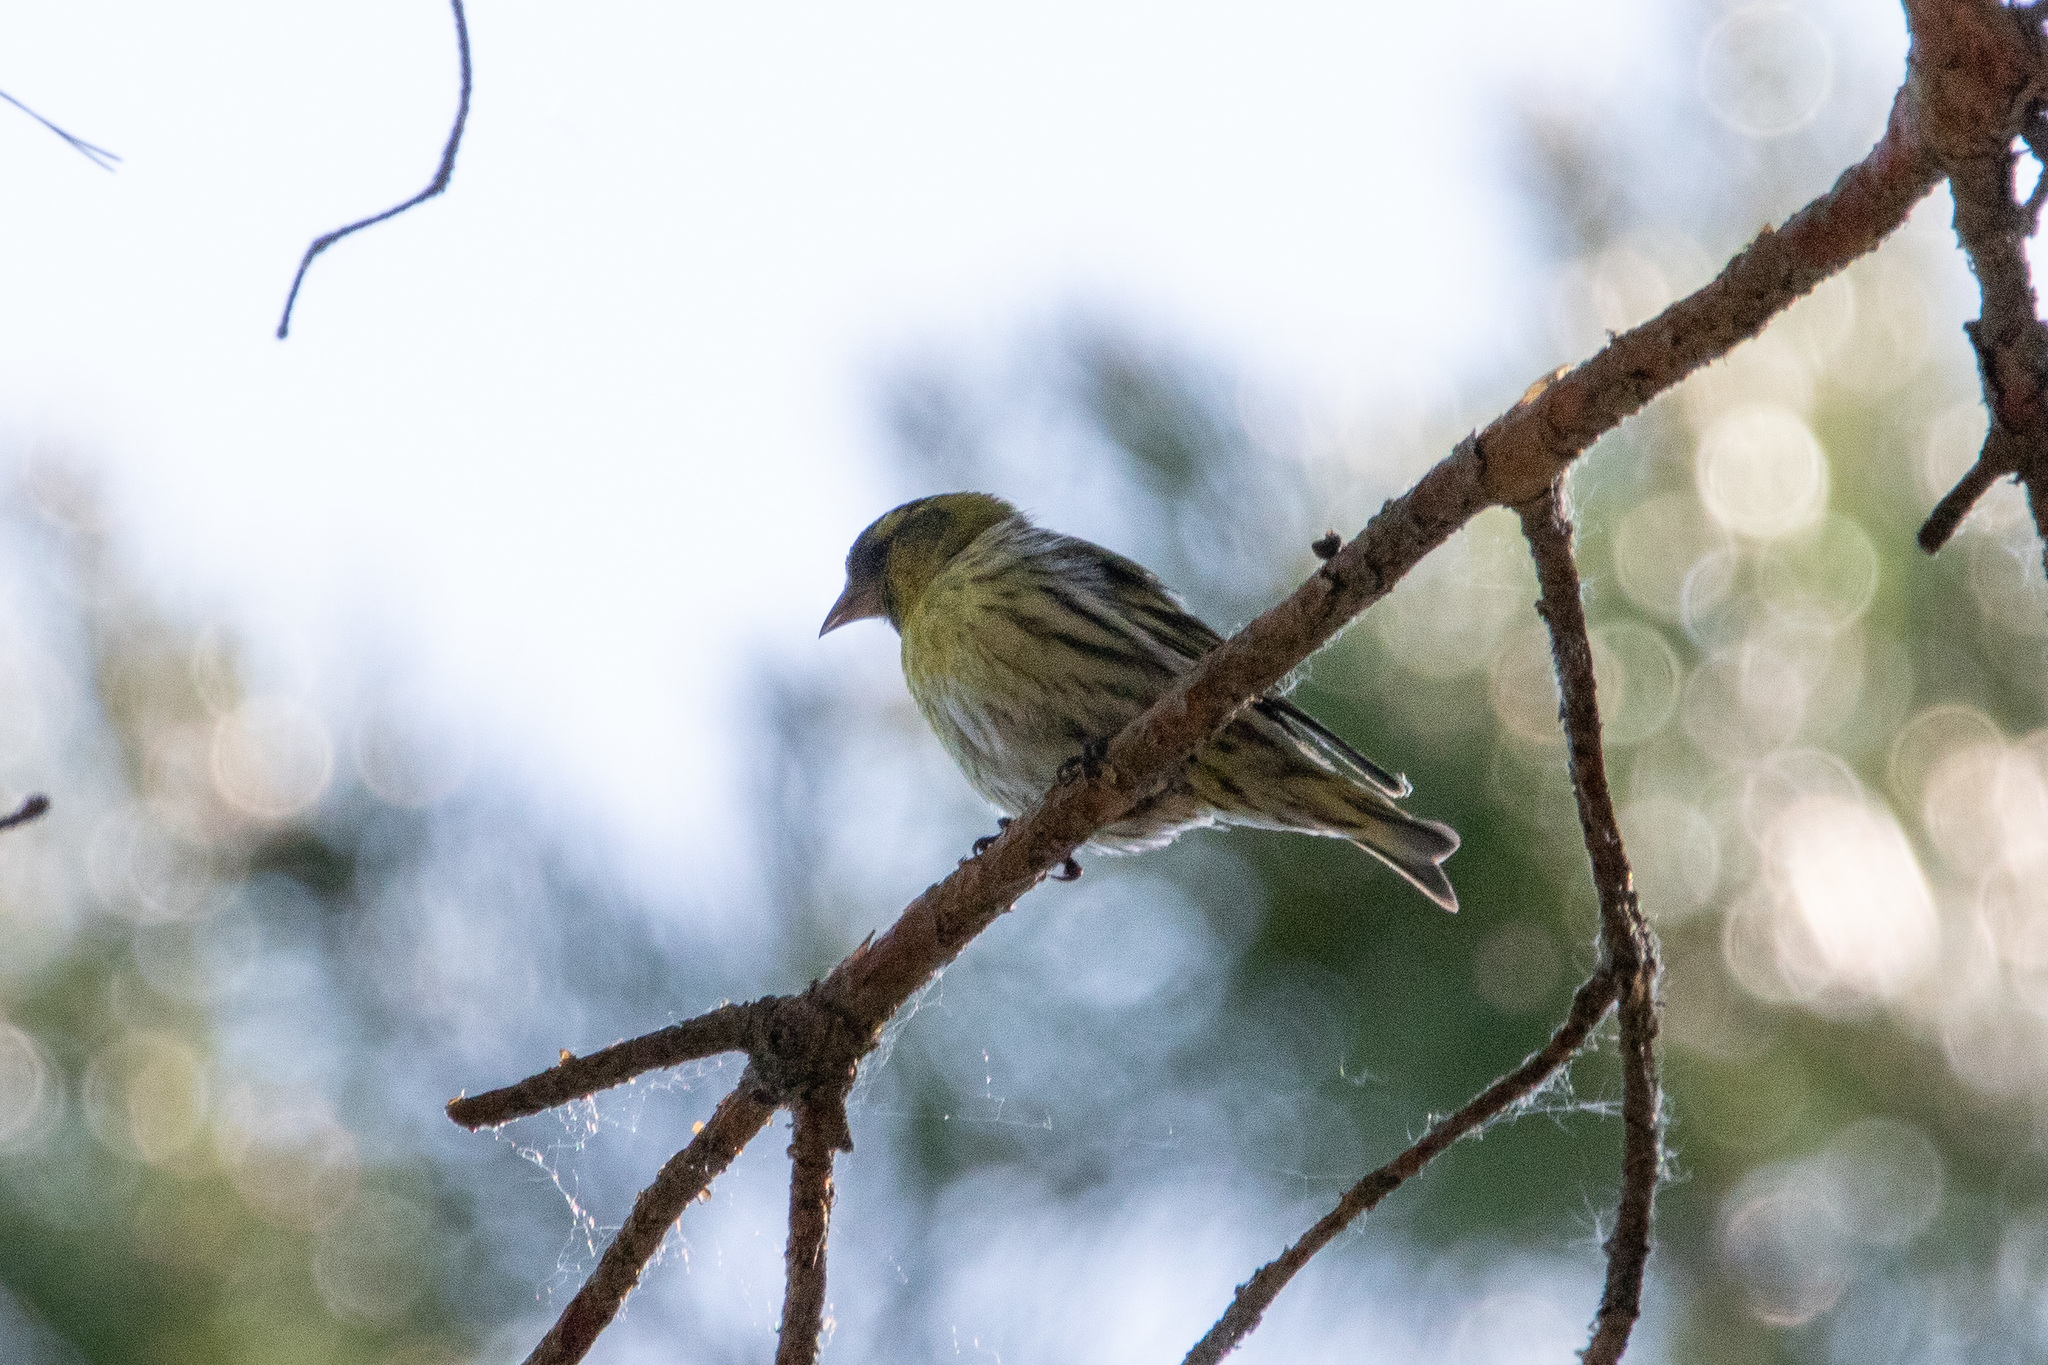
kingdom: Animalia
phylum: Chordata
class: Aves
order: Passeriformes
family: Fringillidae
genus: Spinus
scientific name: Spinus spinus
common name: Eurasian siskin
